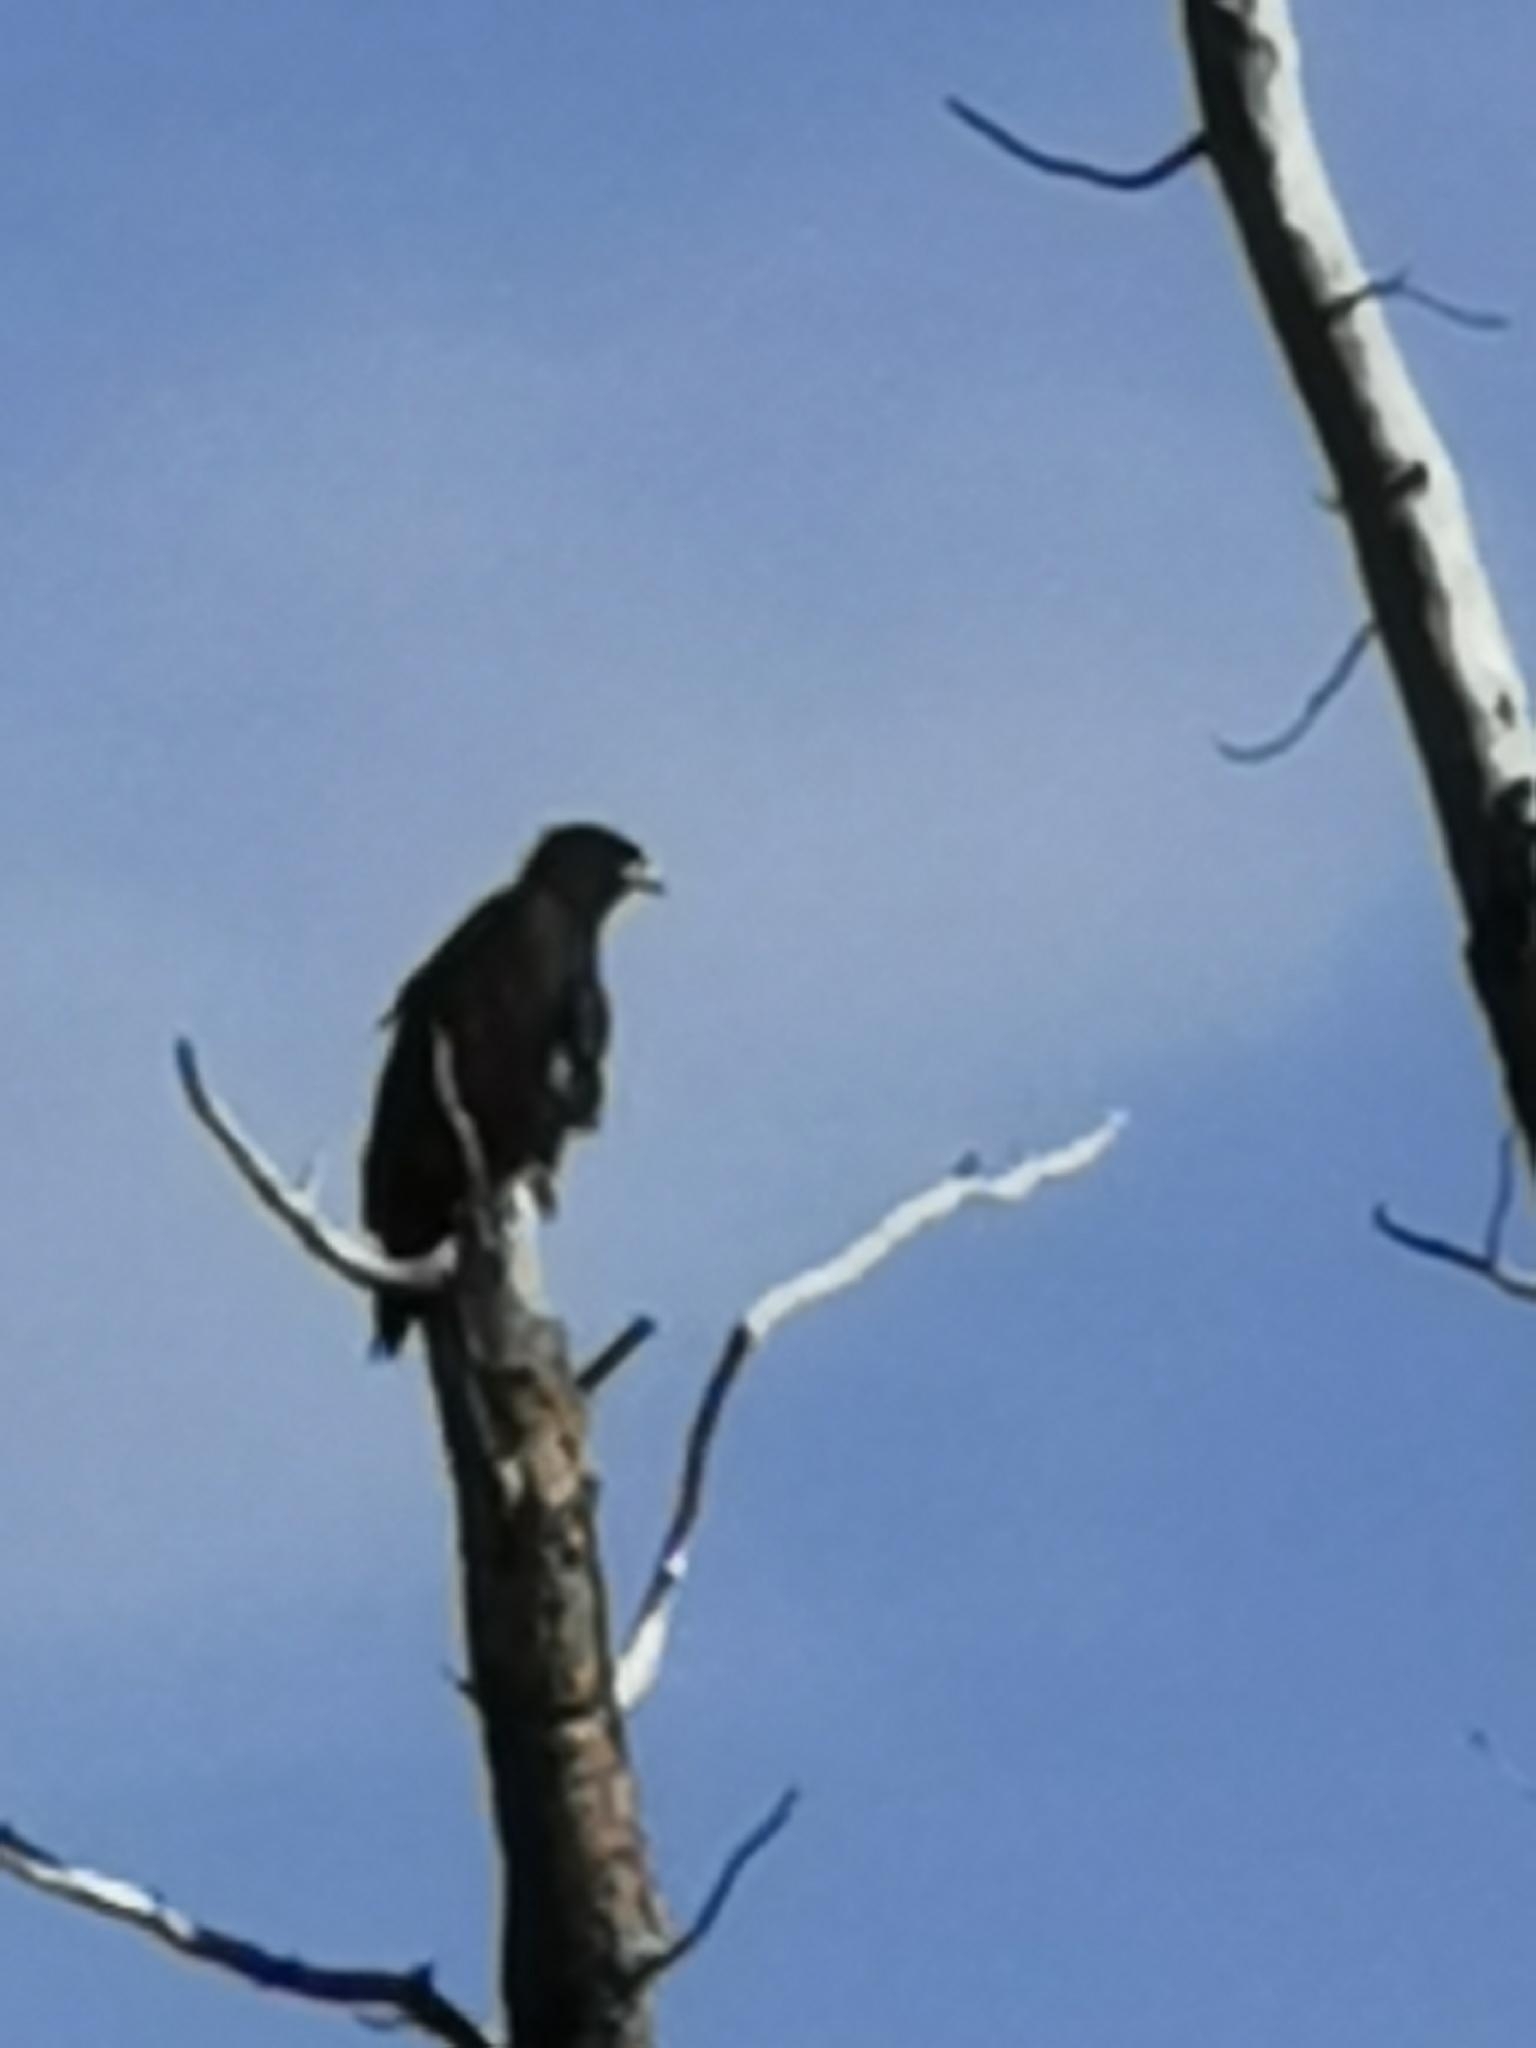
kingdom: Animalia
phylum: Chordata
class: Aves
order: Accipitriformes
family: Accipitridae
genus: Haliaeetus
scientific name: Haliaeetus leucocephalus
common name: Bald eagle
